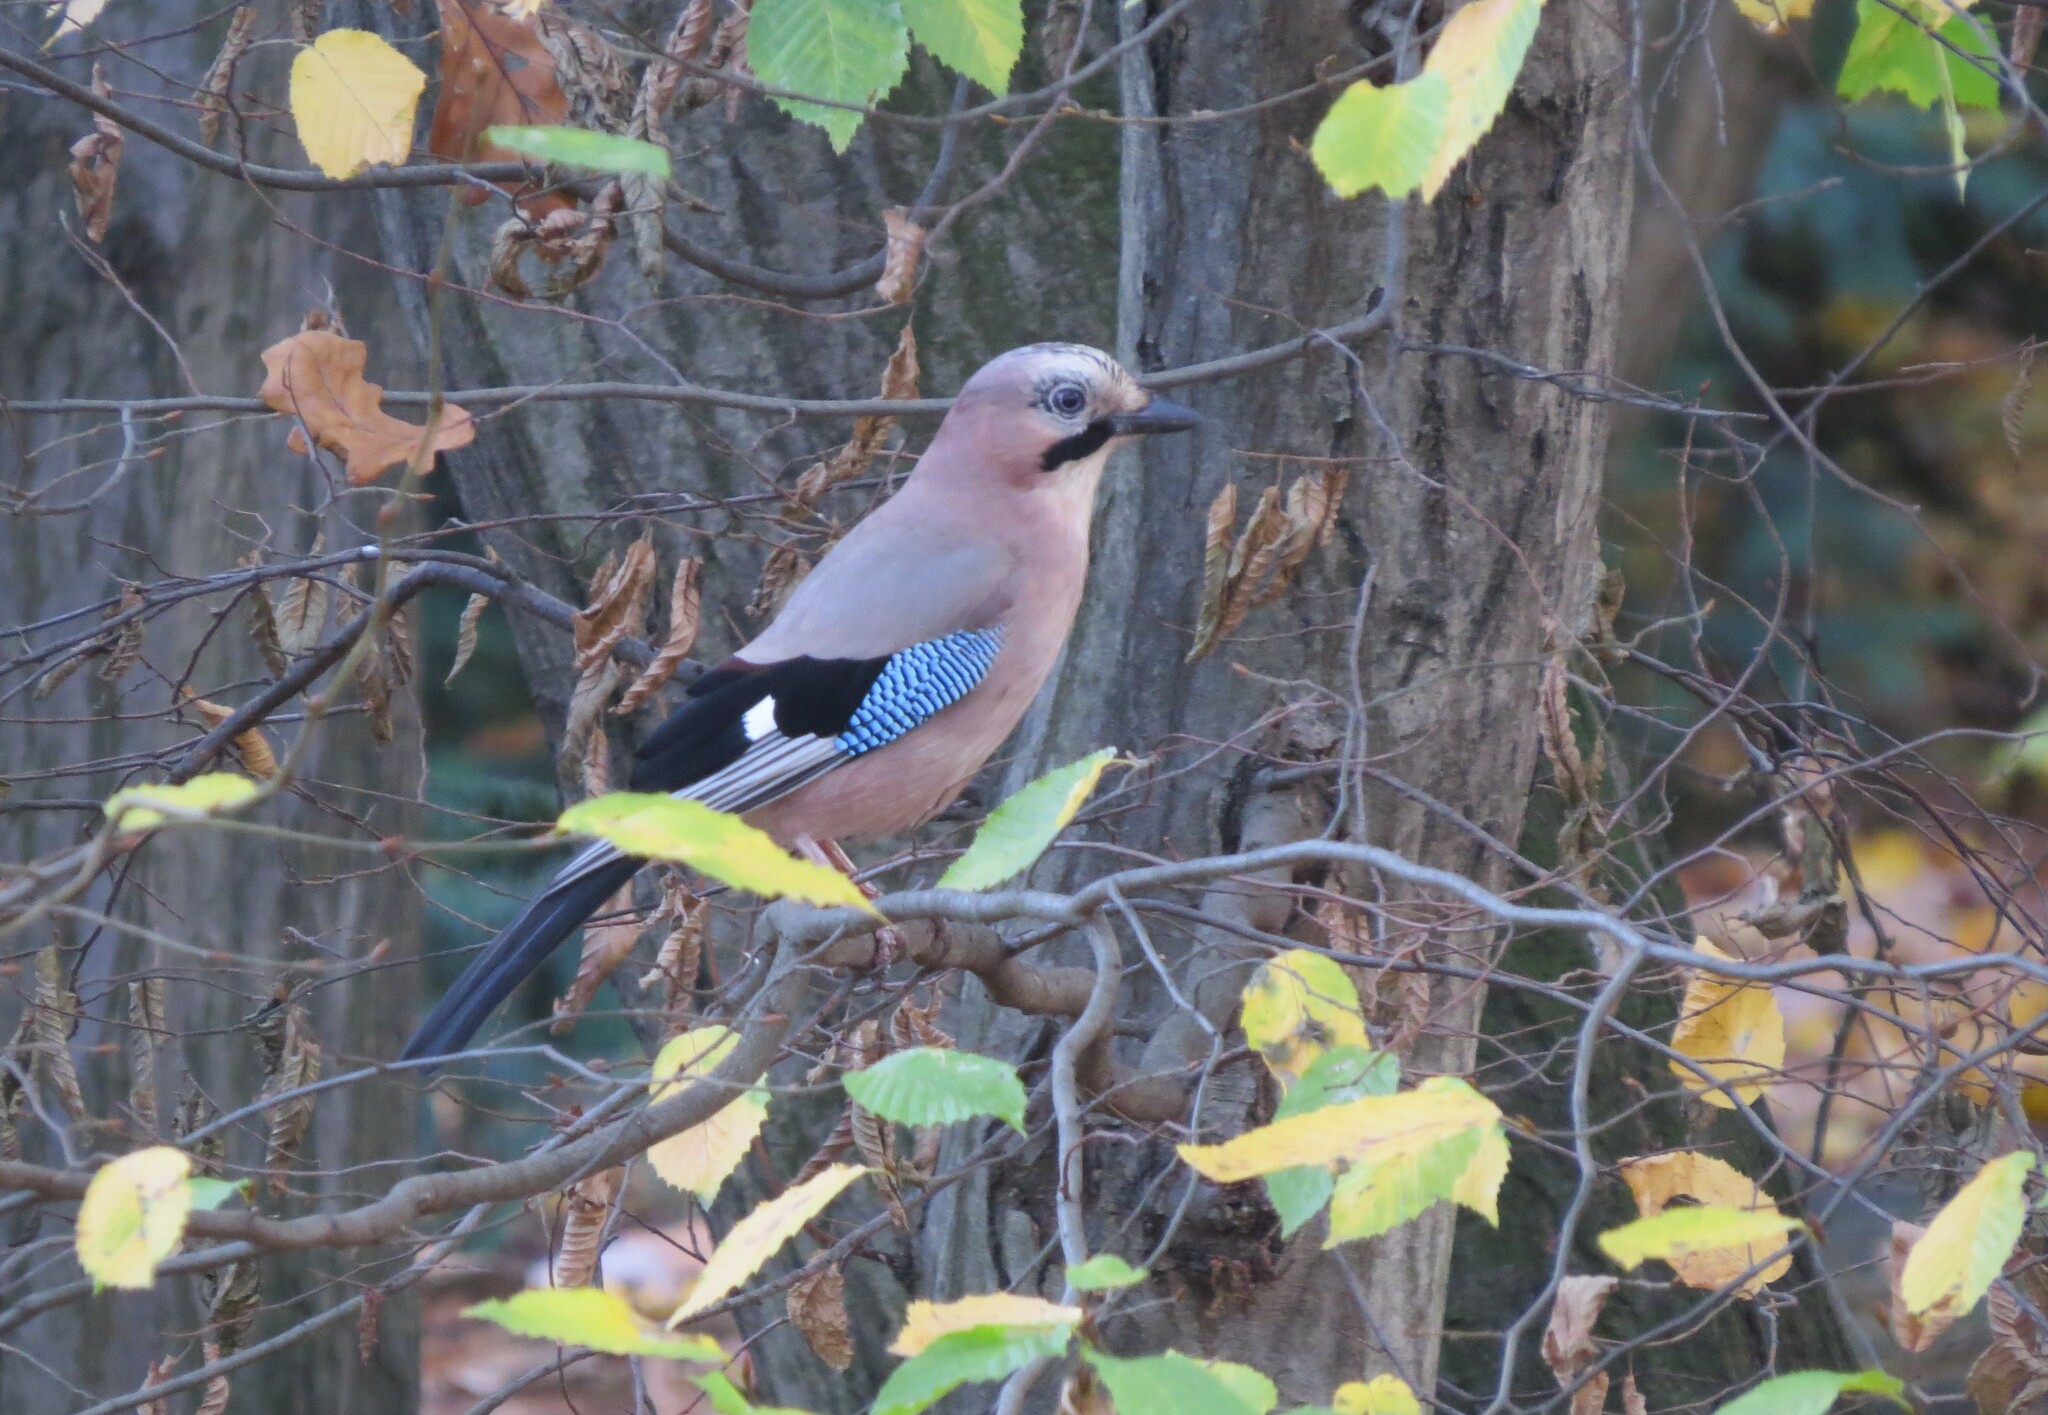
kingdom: Animalia
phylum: Chordata
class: Aves
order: Passeriformes
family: Corvidae
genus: Garrulus
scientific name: Garrulus glandarius
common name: Eurasian jay
